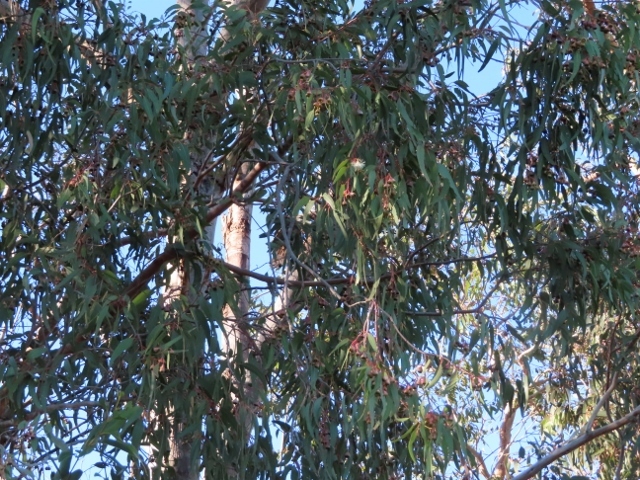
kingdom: Plantae
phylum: Tracheophyta
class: Magnoliopsida
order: Myrtales
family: Myrtaceae
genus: Eucalyptus
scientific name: Eucalyptus leucoxylon
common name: Blue gum
